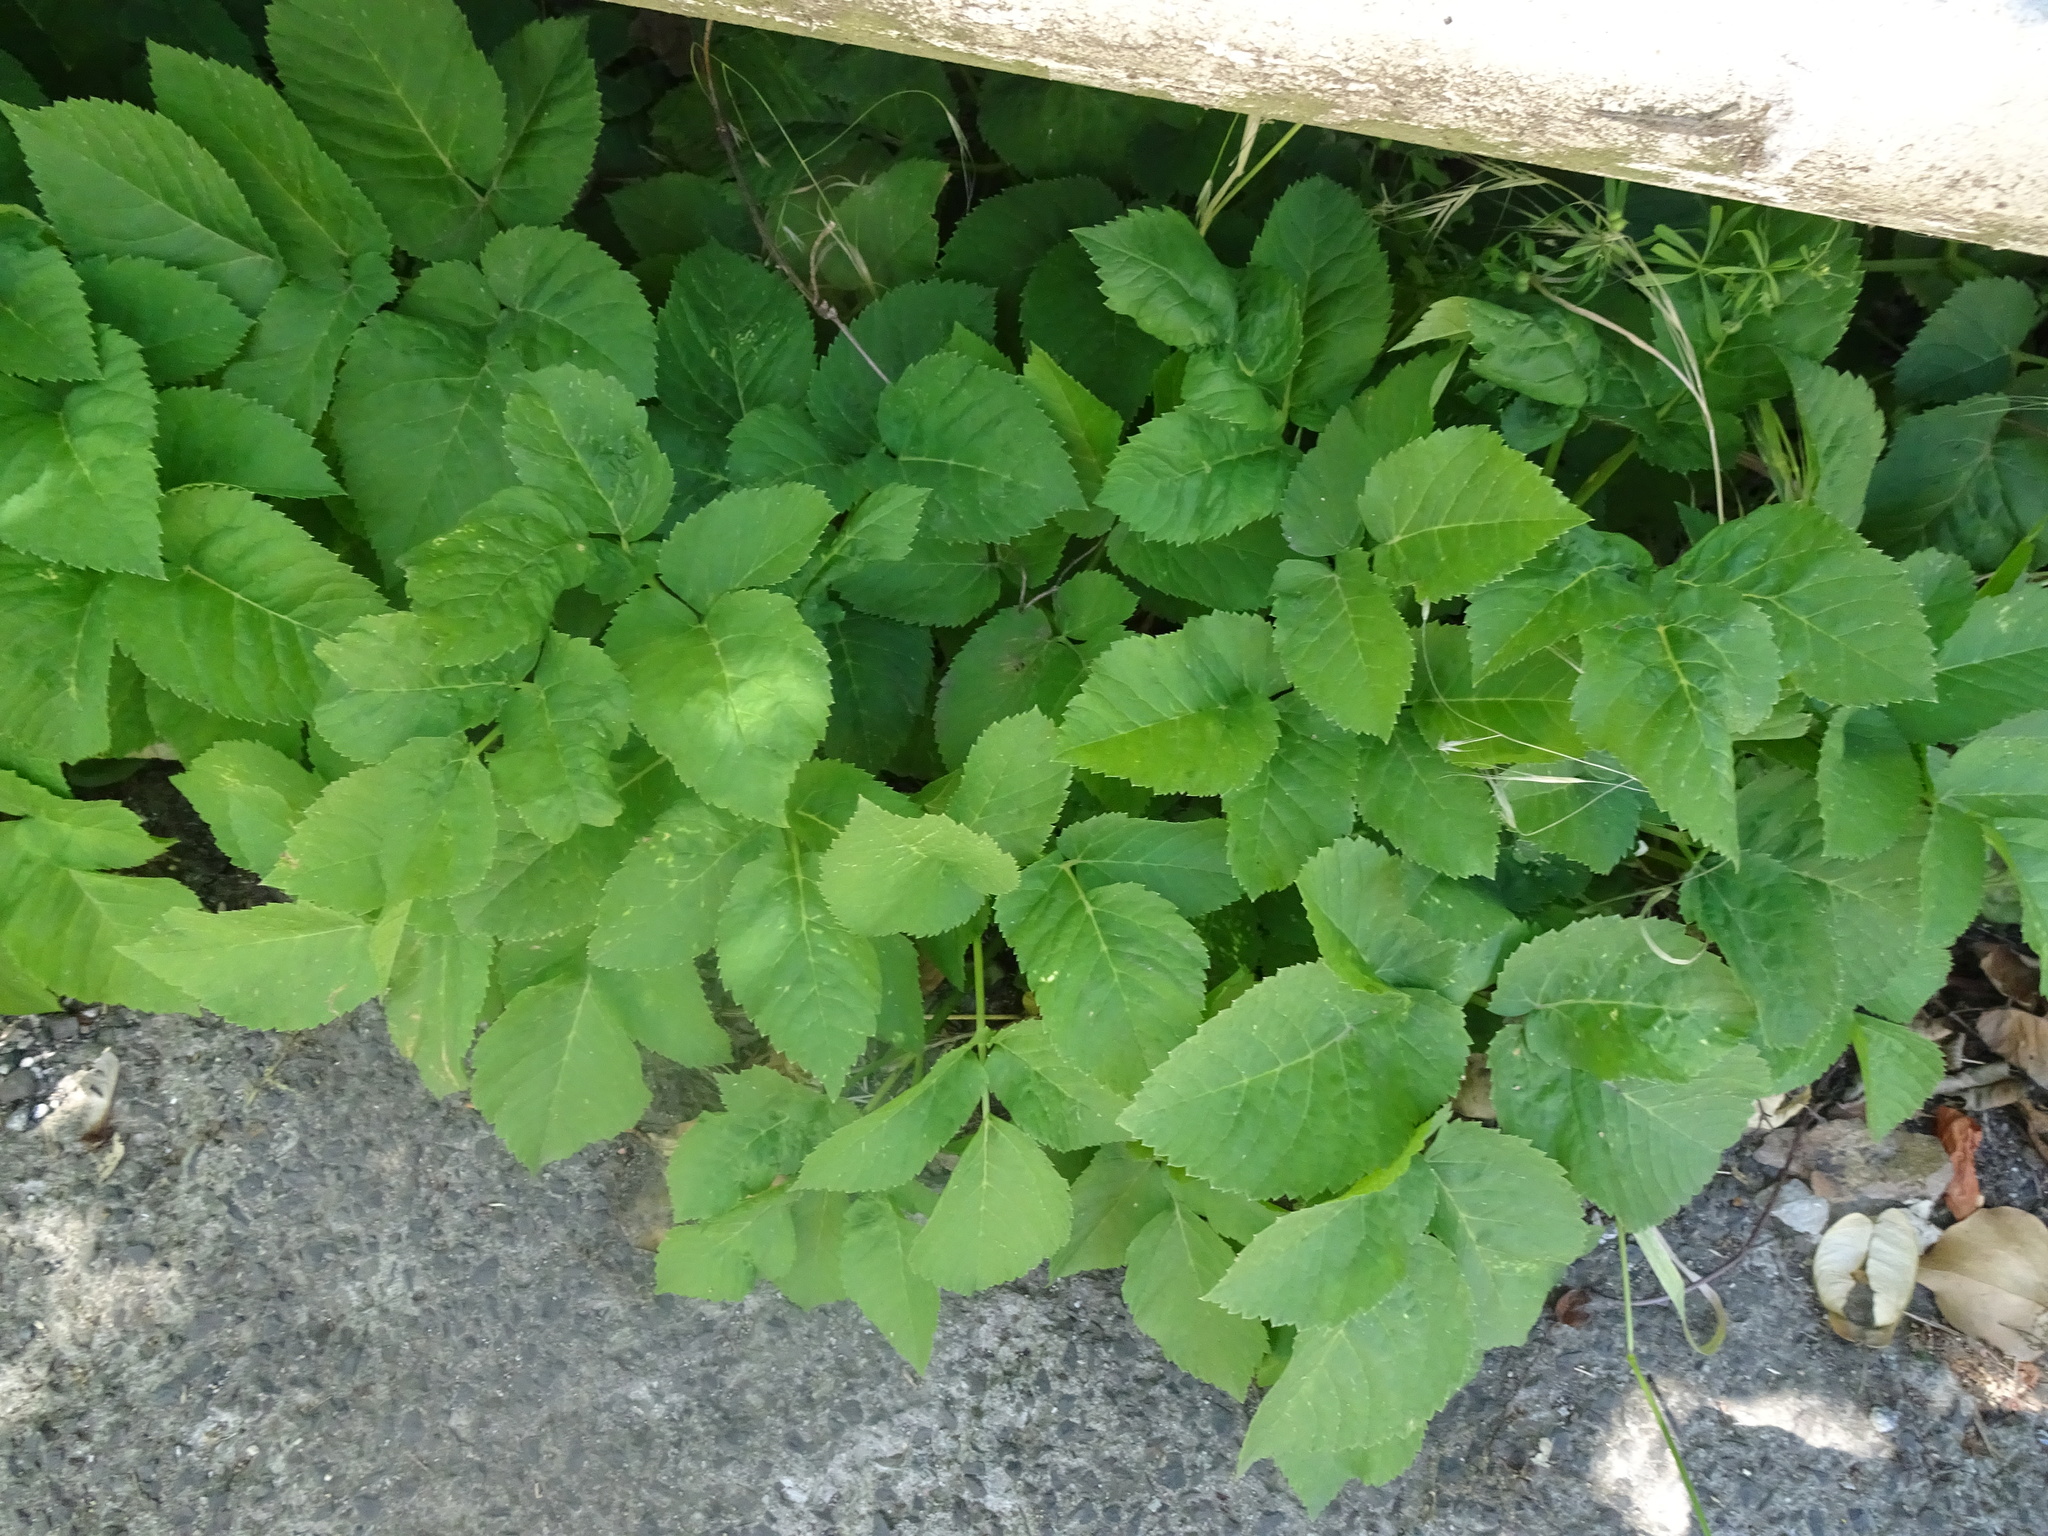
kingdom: Plantae
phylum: Tracheophyta
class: Magnoliopsida
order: Apiales
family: Apiaceae
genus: Aegopodium
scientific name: Aegopodium podagraria
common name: Ground-elder
